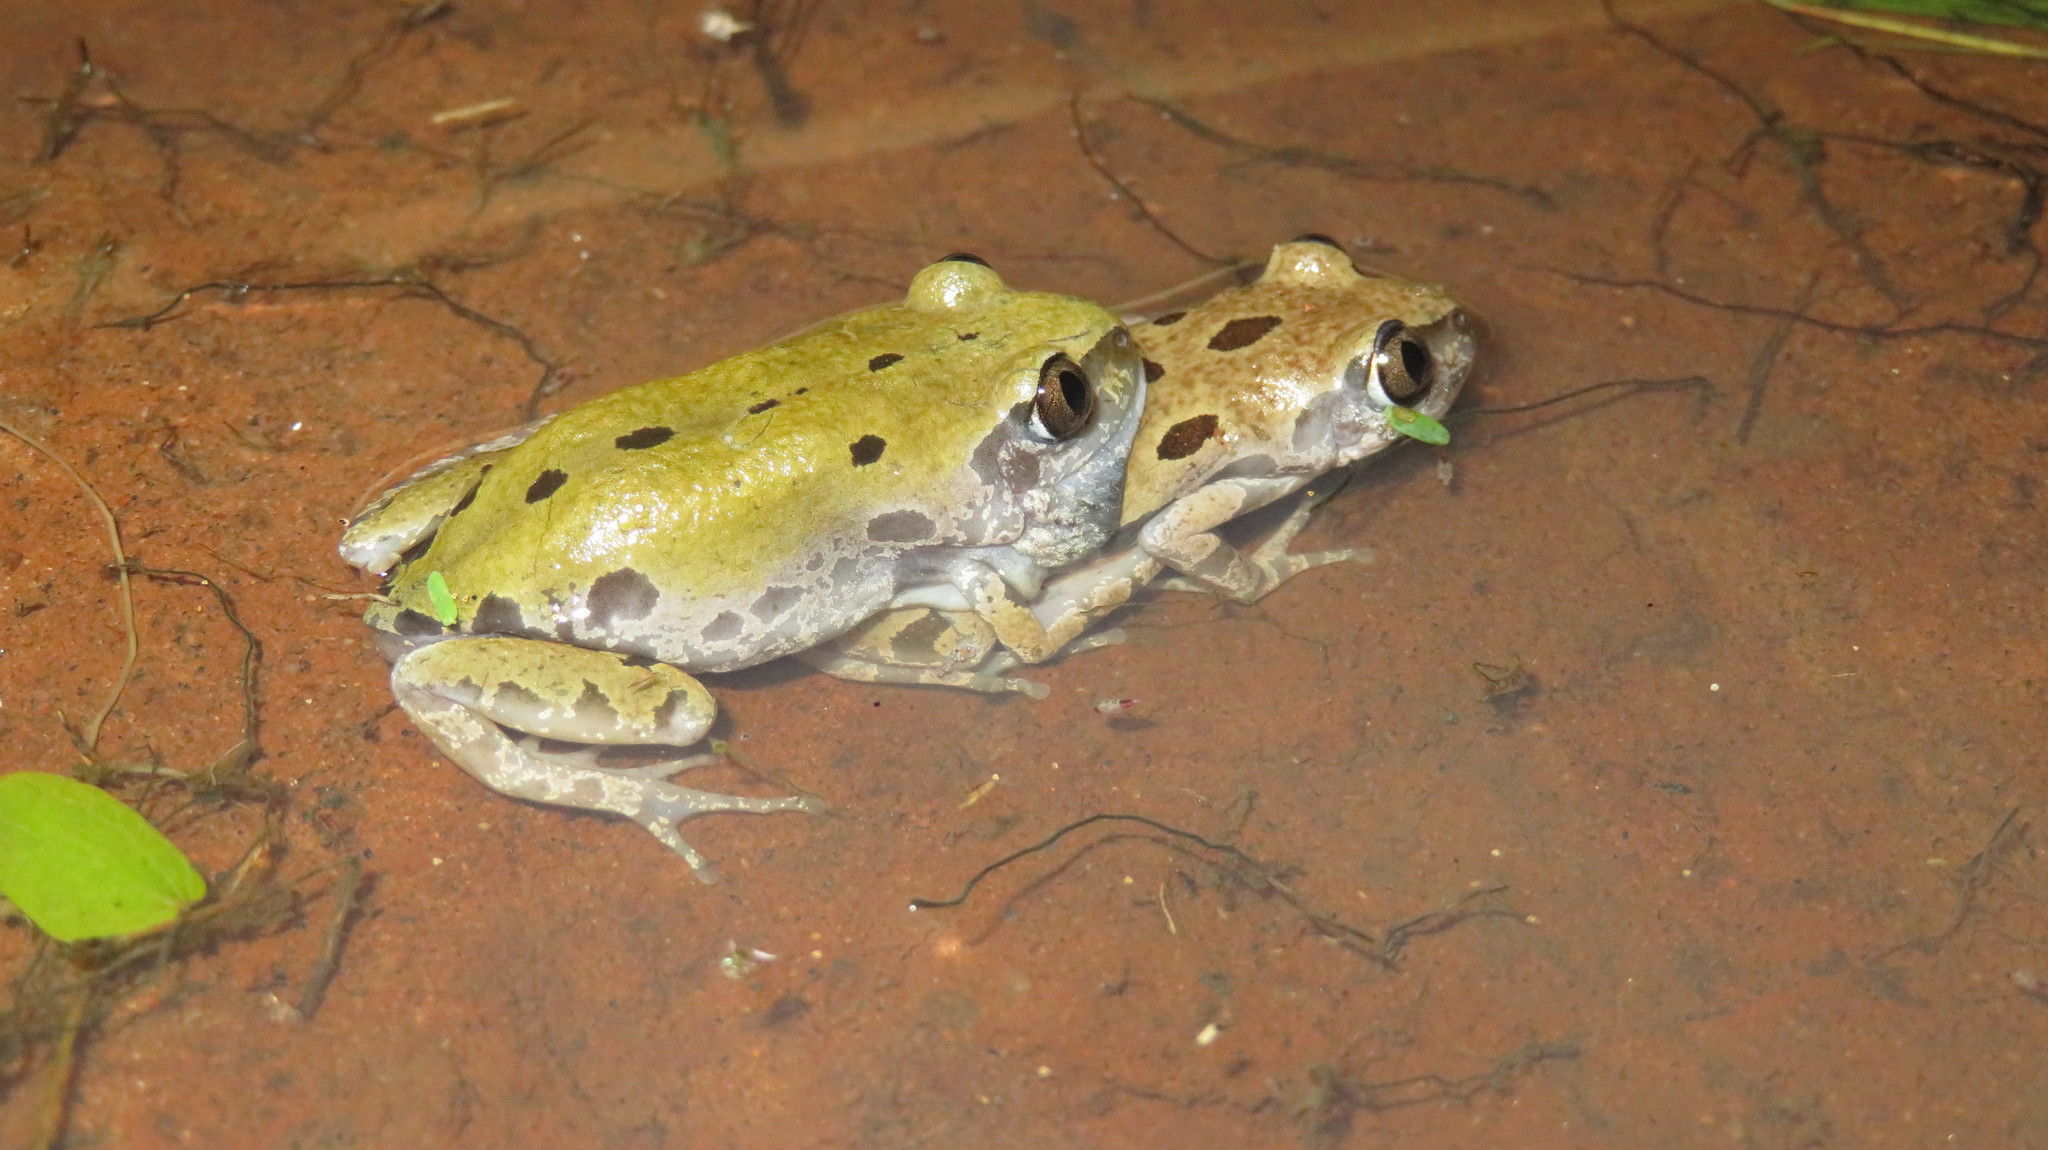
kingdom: Animalia
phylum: Chordata
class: Amphibia
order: Anura
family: Hyperoliidae
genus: Kassina
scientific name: Kassina senegalensis
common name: Senegal land frog
